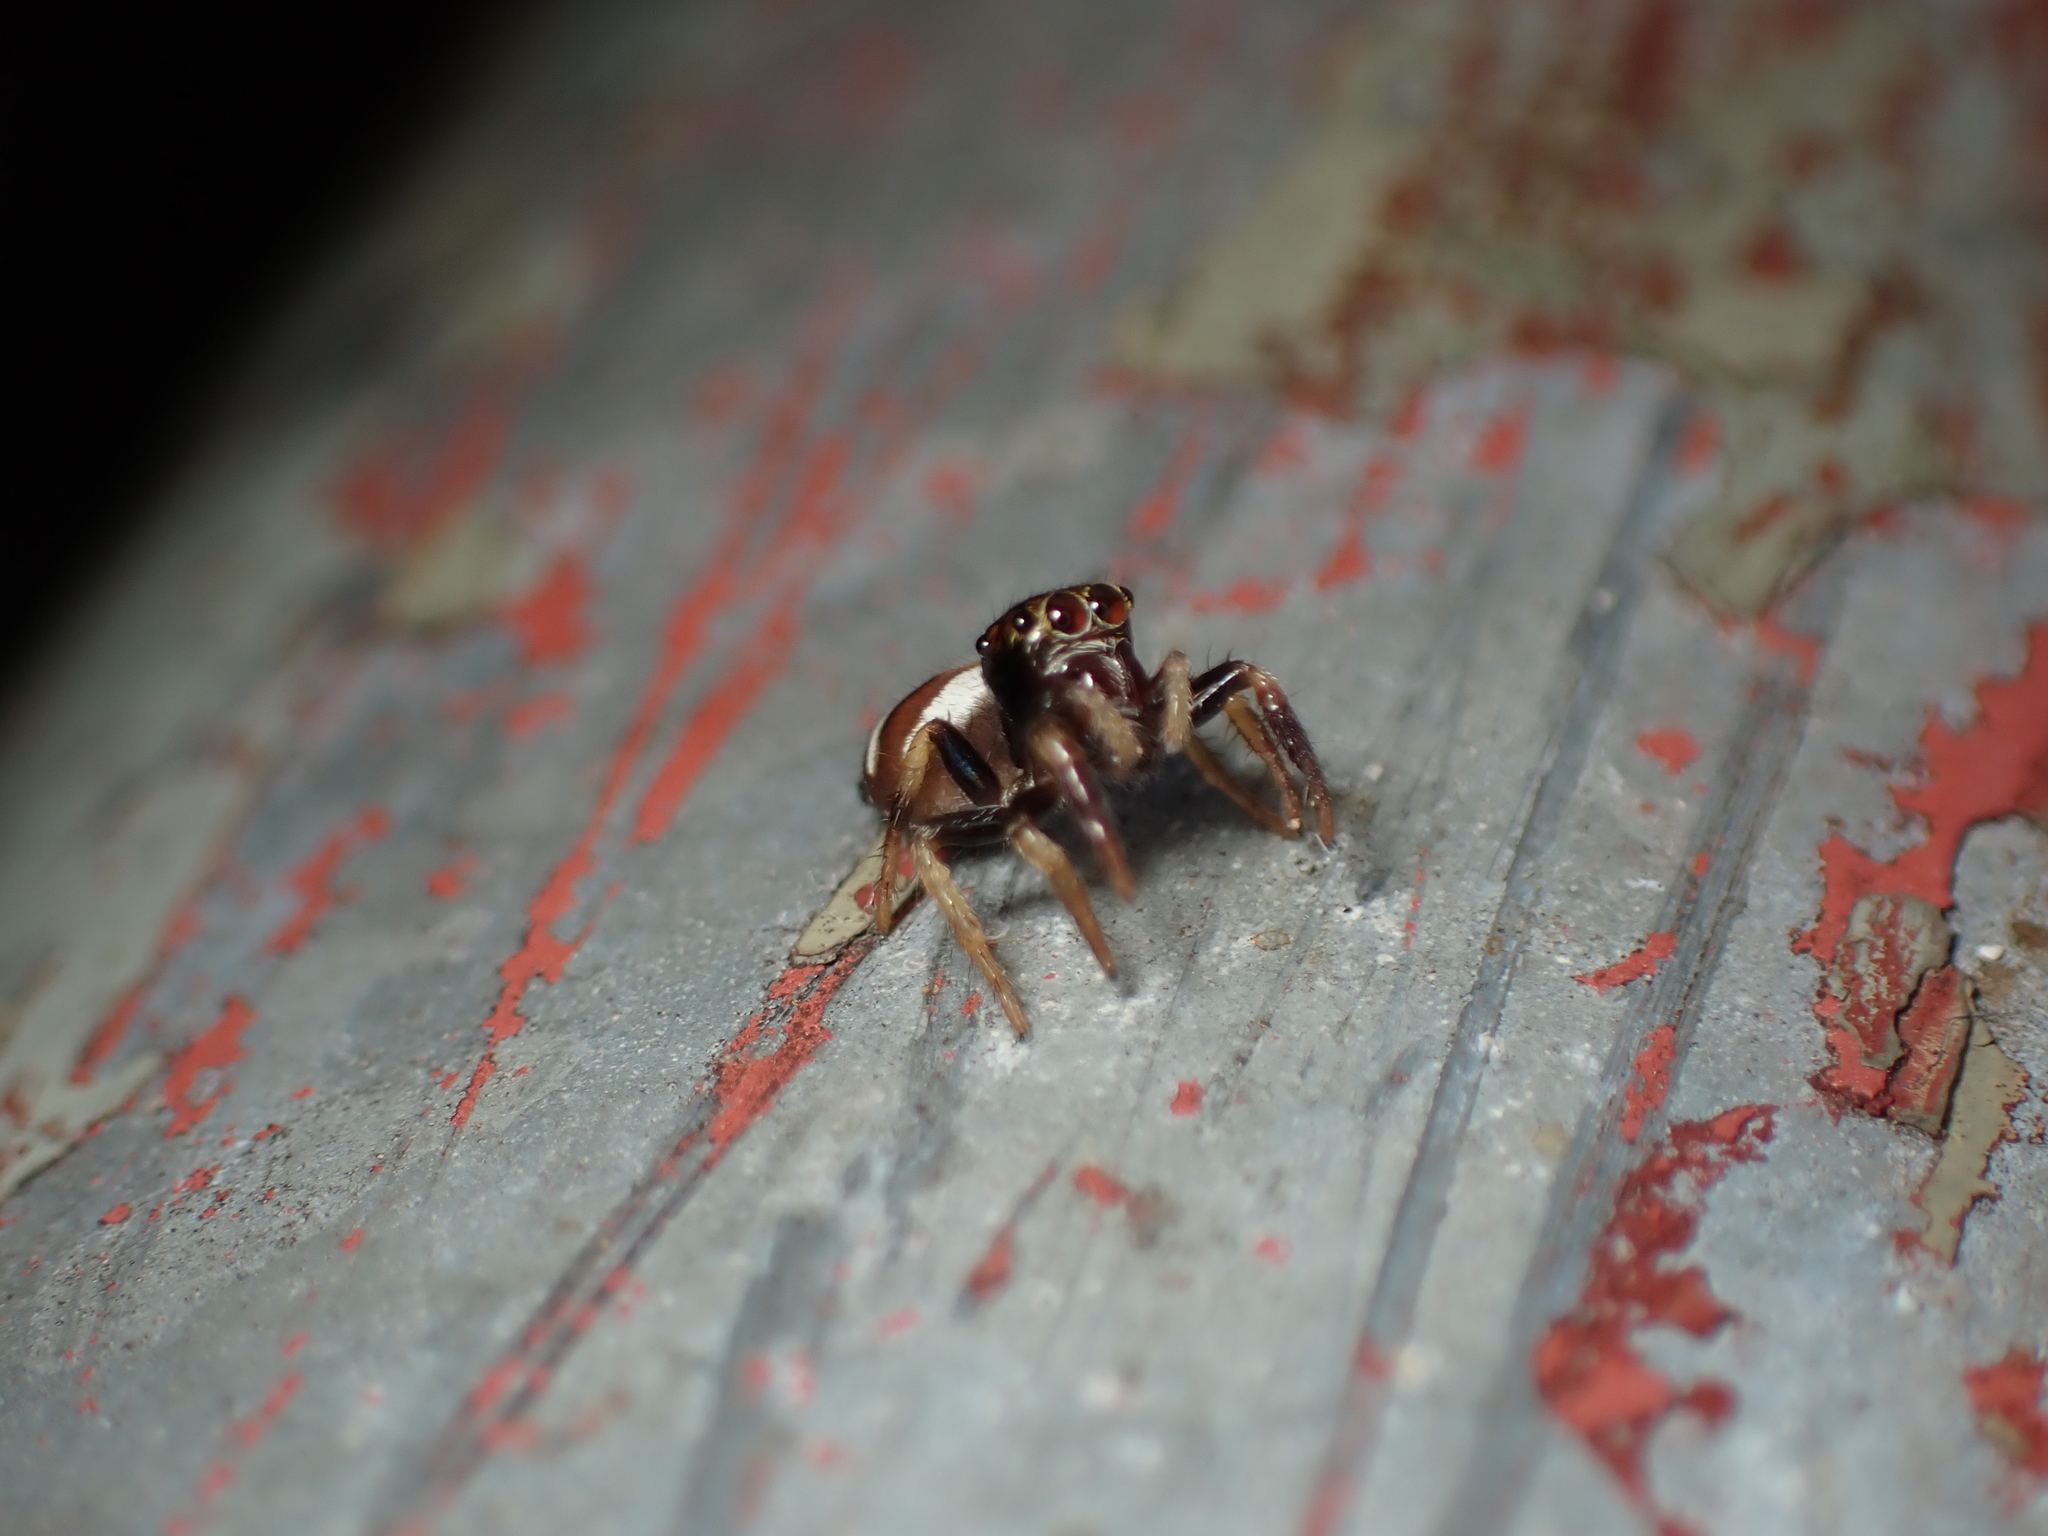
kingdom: Animalia
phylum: Arthropoda
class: Arachnida
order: Araneae
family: Salticidae
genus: Ptocasius
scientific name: Ptocasius strupifer
